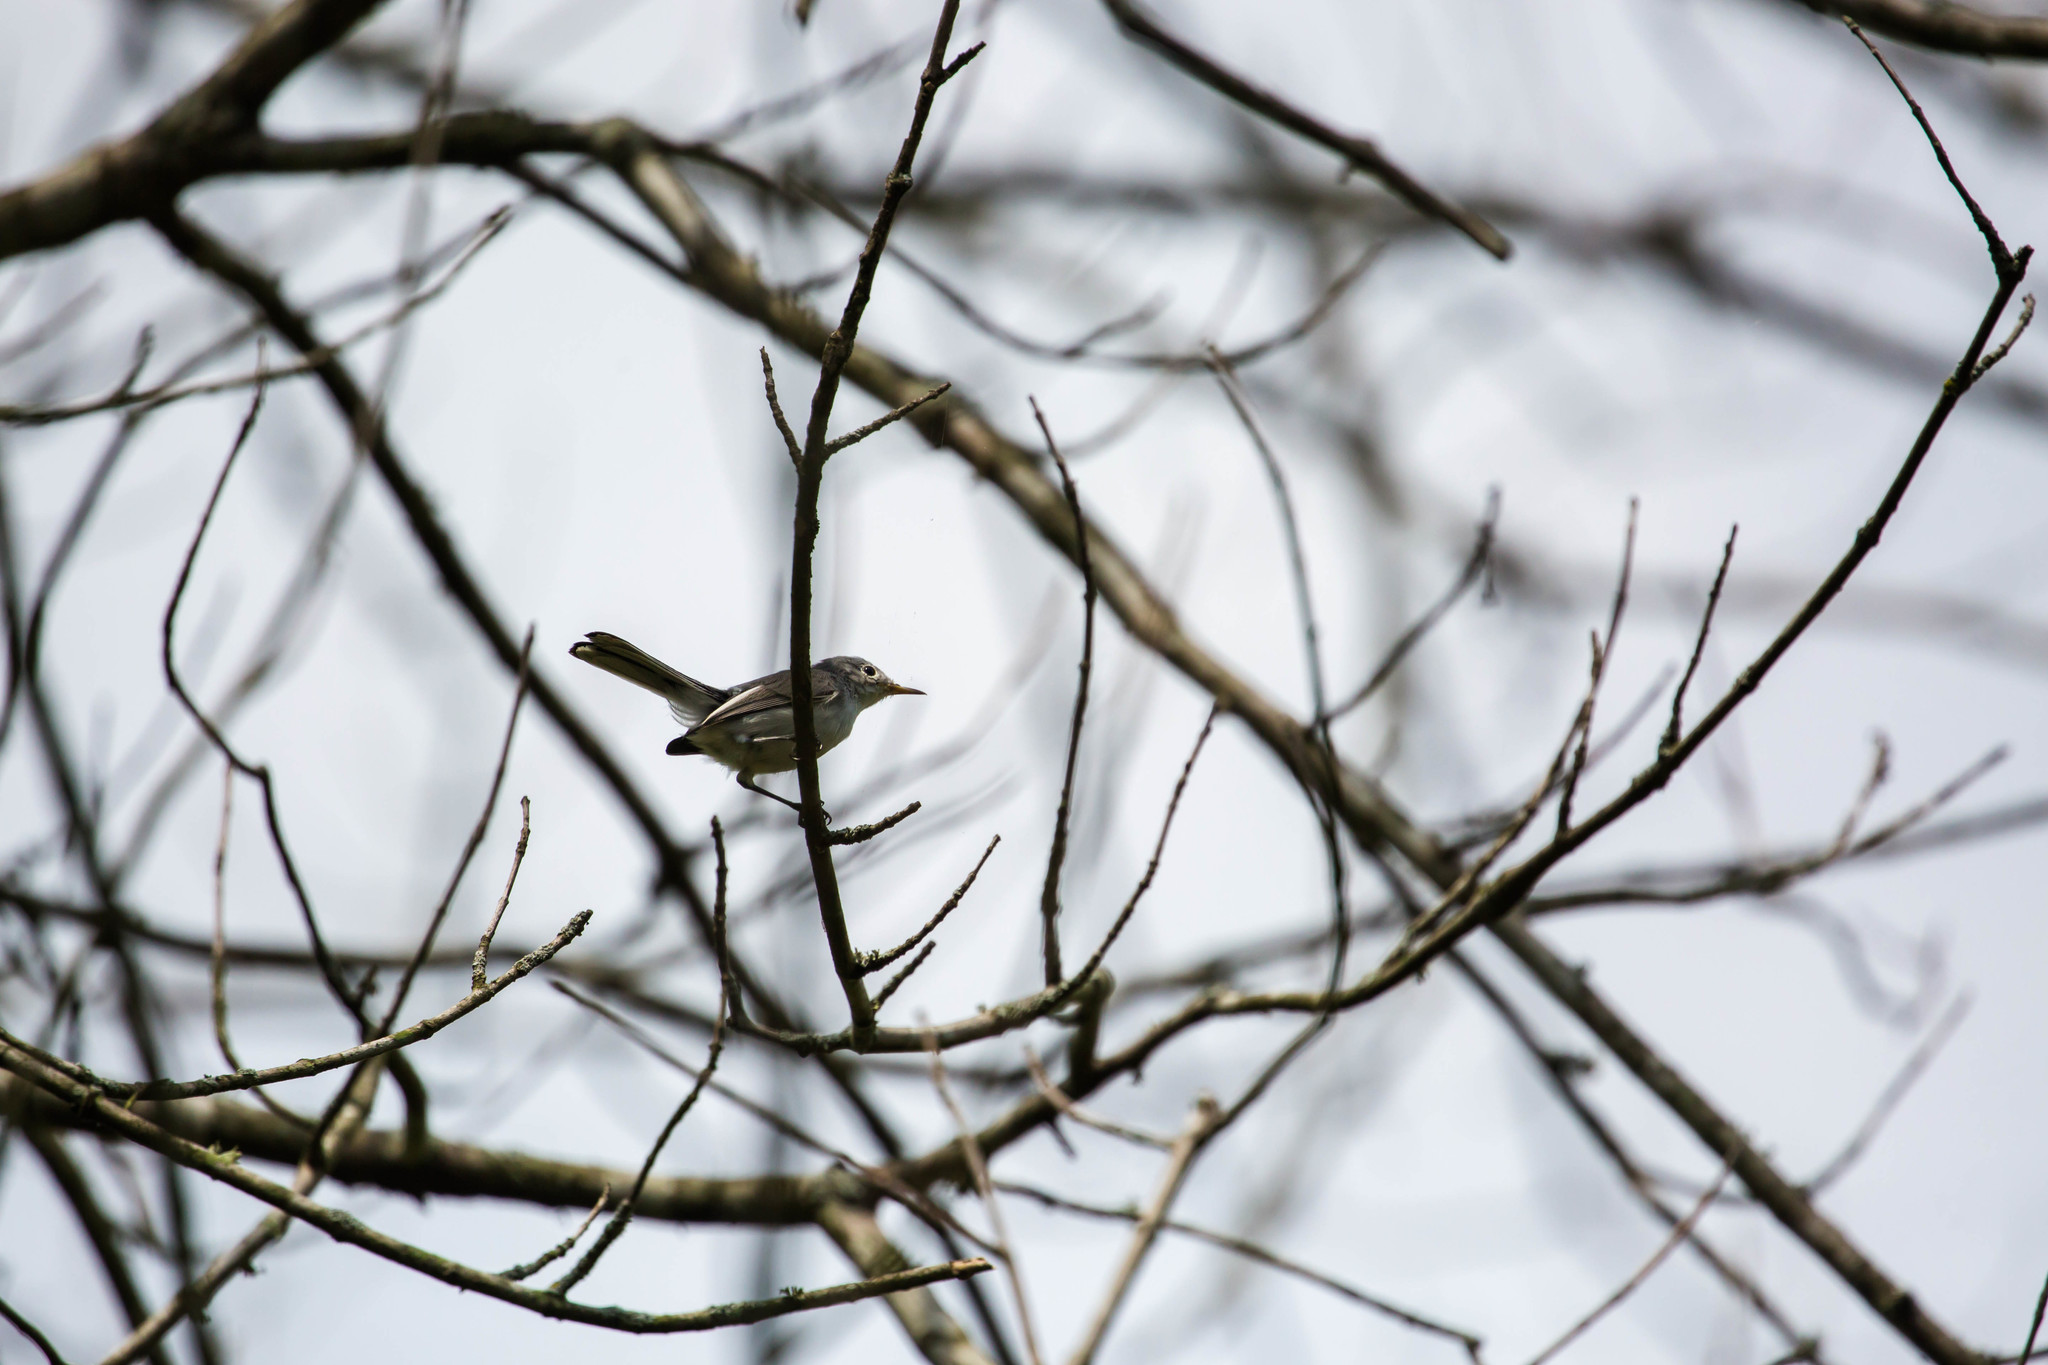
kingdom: Animalia
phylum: Chordata
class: Aves
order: Passeriformes
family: Polioptilidae
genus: Polioptila
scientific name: Polioptila caerulea
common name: Blue-gray gnatcatcher
